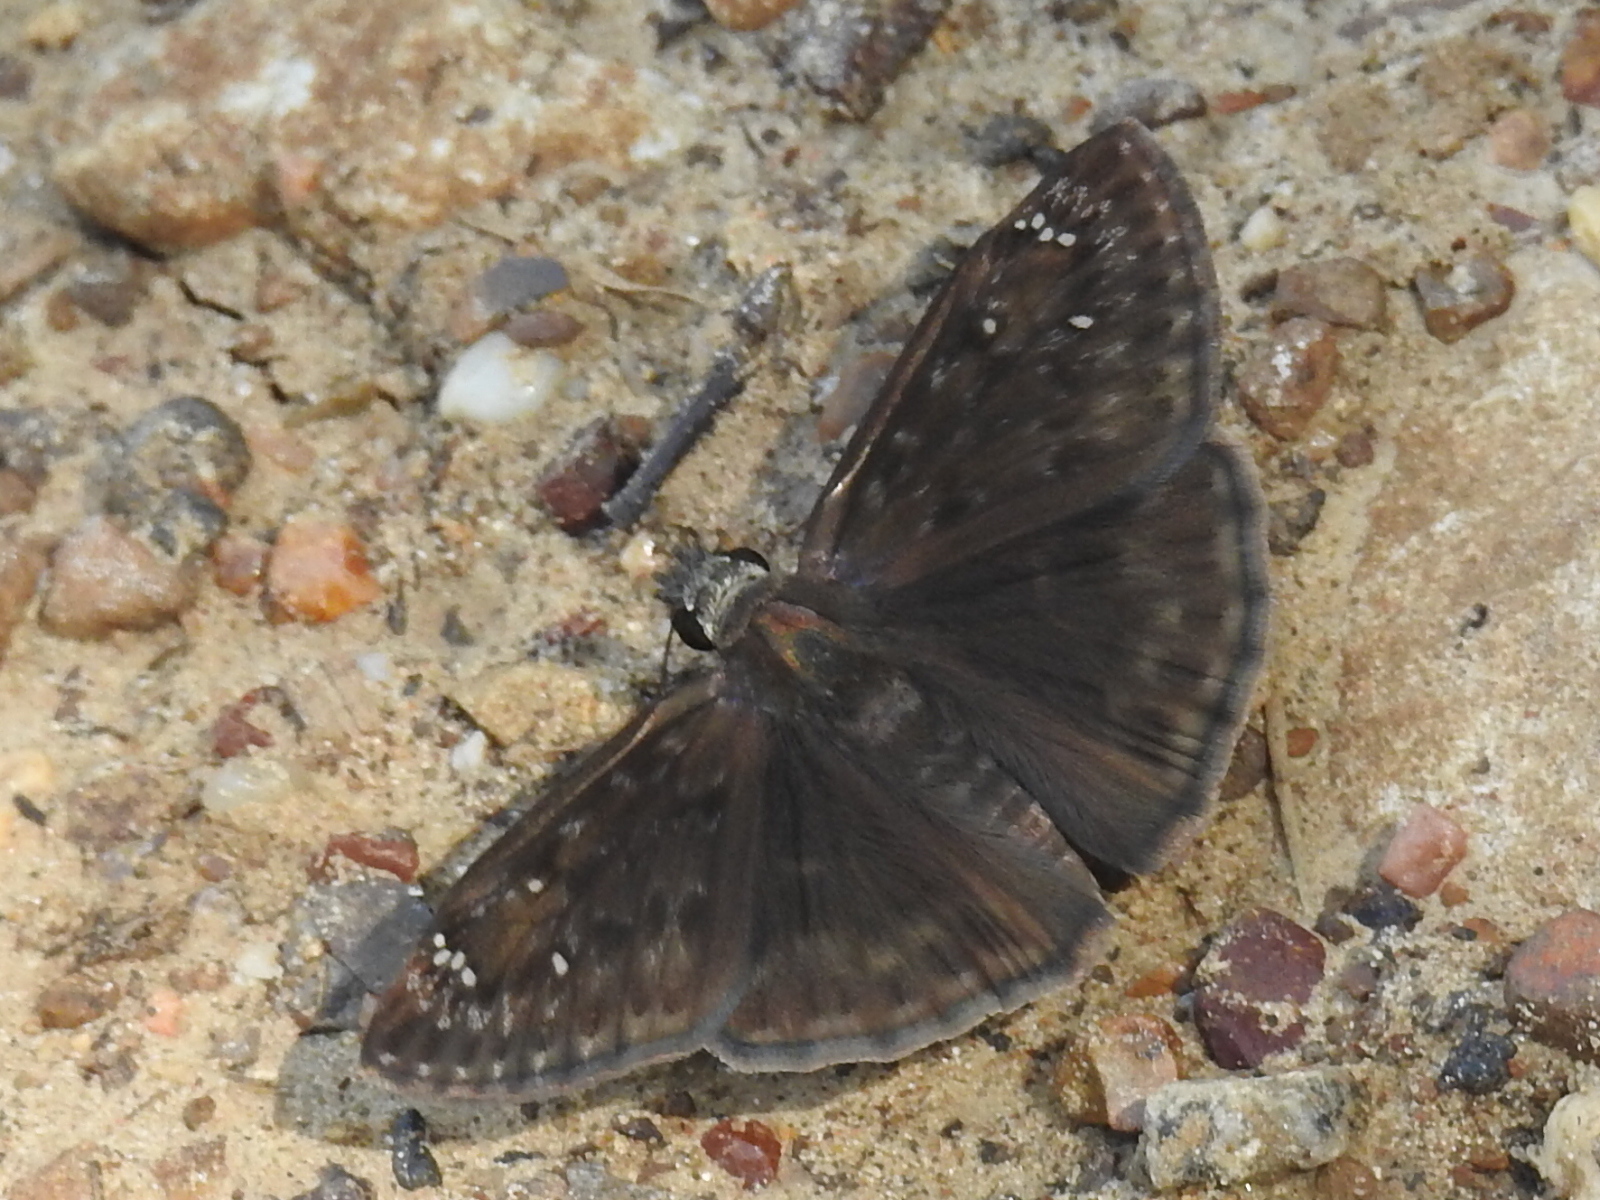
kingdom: Animalia
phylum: Arthropoda
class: Insecta
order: Lepidoptera
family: Hesperiidae
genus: Erynnis
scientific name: Erynnis horatius
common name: Horace's duskywing
